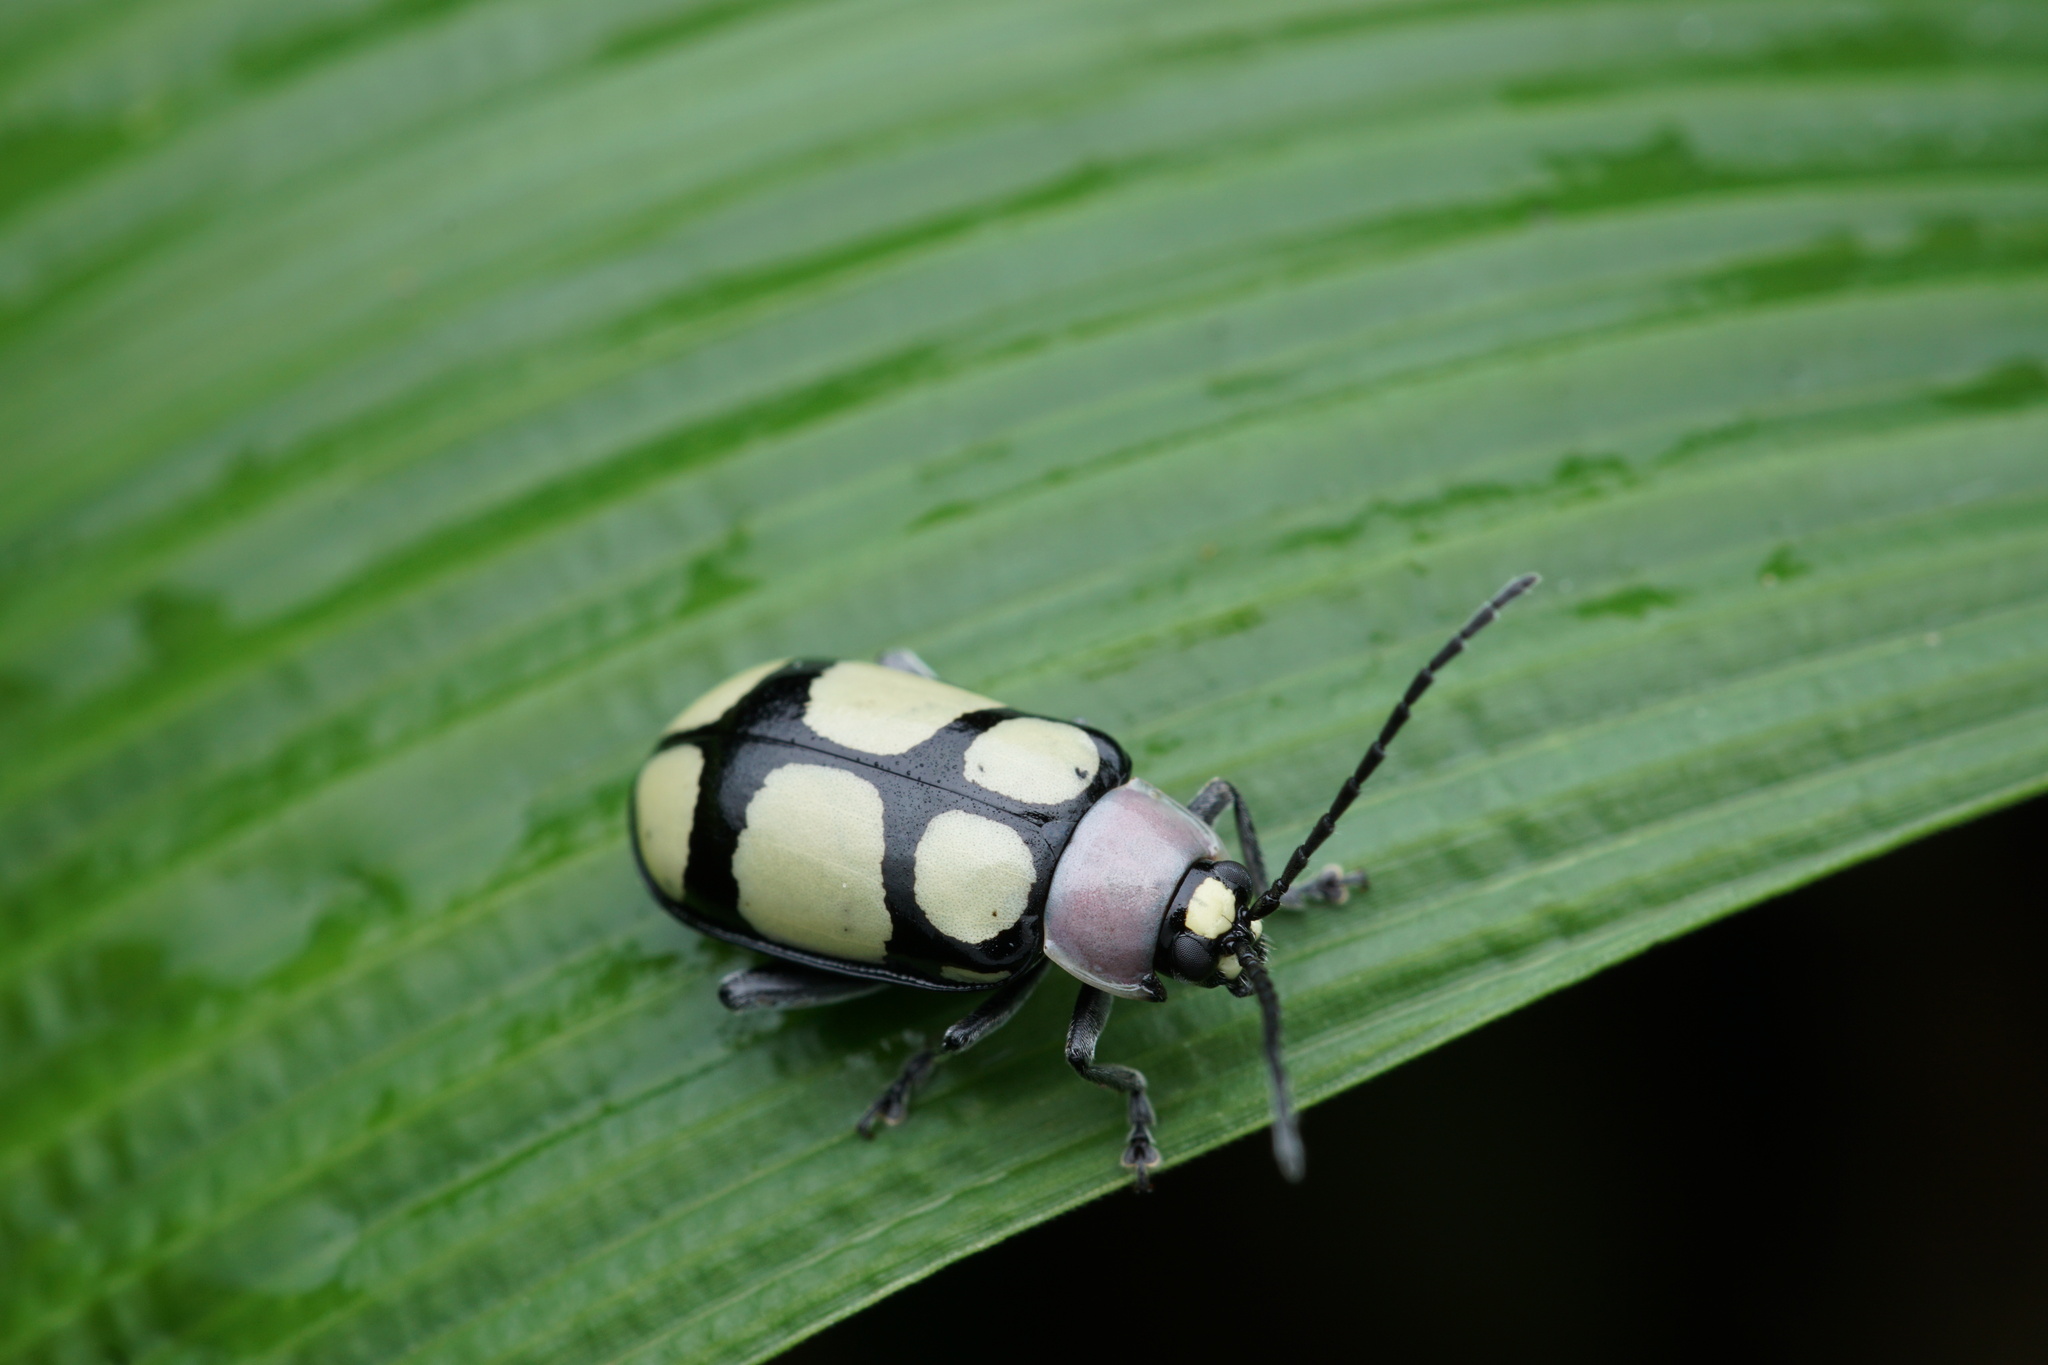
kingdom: Animalia
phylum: Arthropoda
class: Insecta
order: Coleoptera
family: Chrysomelidae
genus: Omophoita
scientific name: Omophoita
